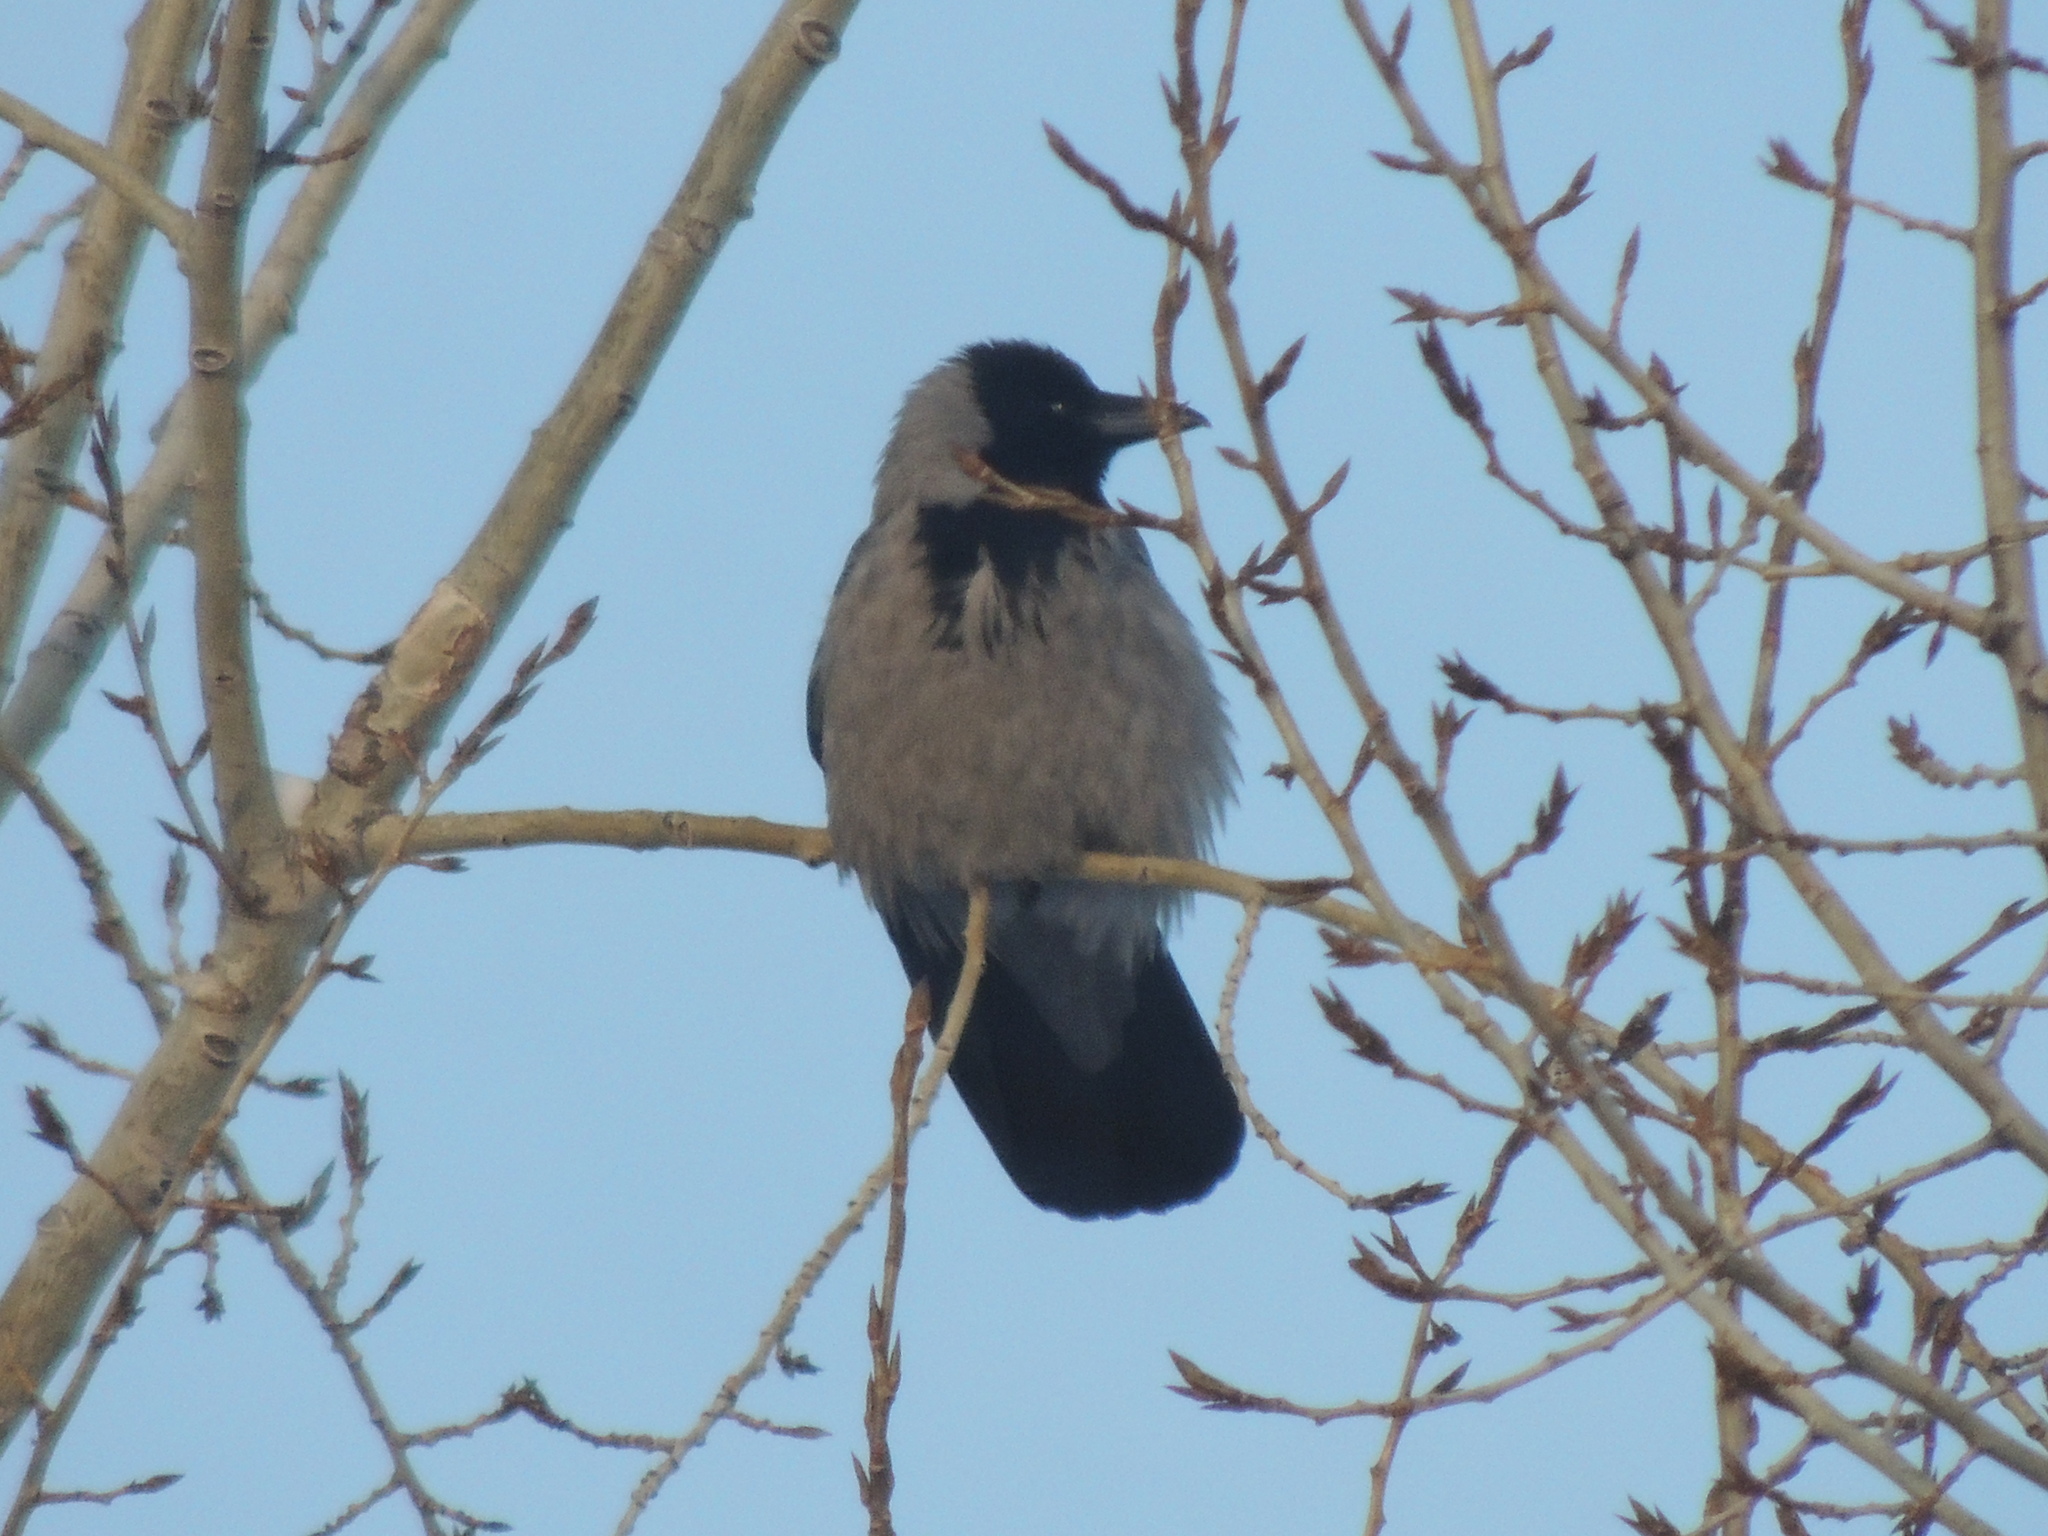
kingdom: Animalia
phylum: Chordata
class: Aves
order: Passeriformes
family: Corvidae
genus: Corvus
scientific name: Corvus cornix
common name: Hooded crow
